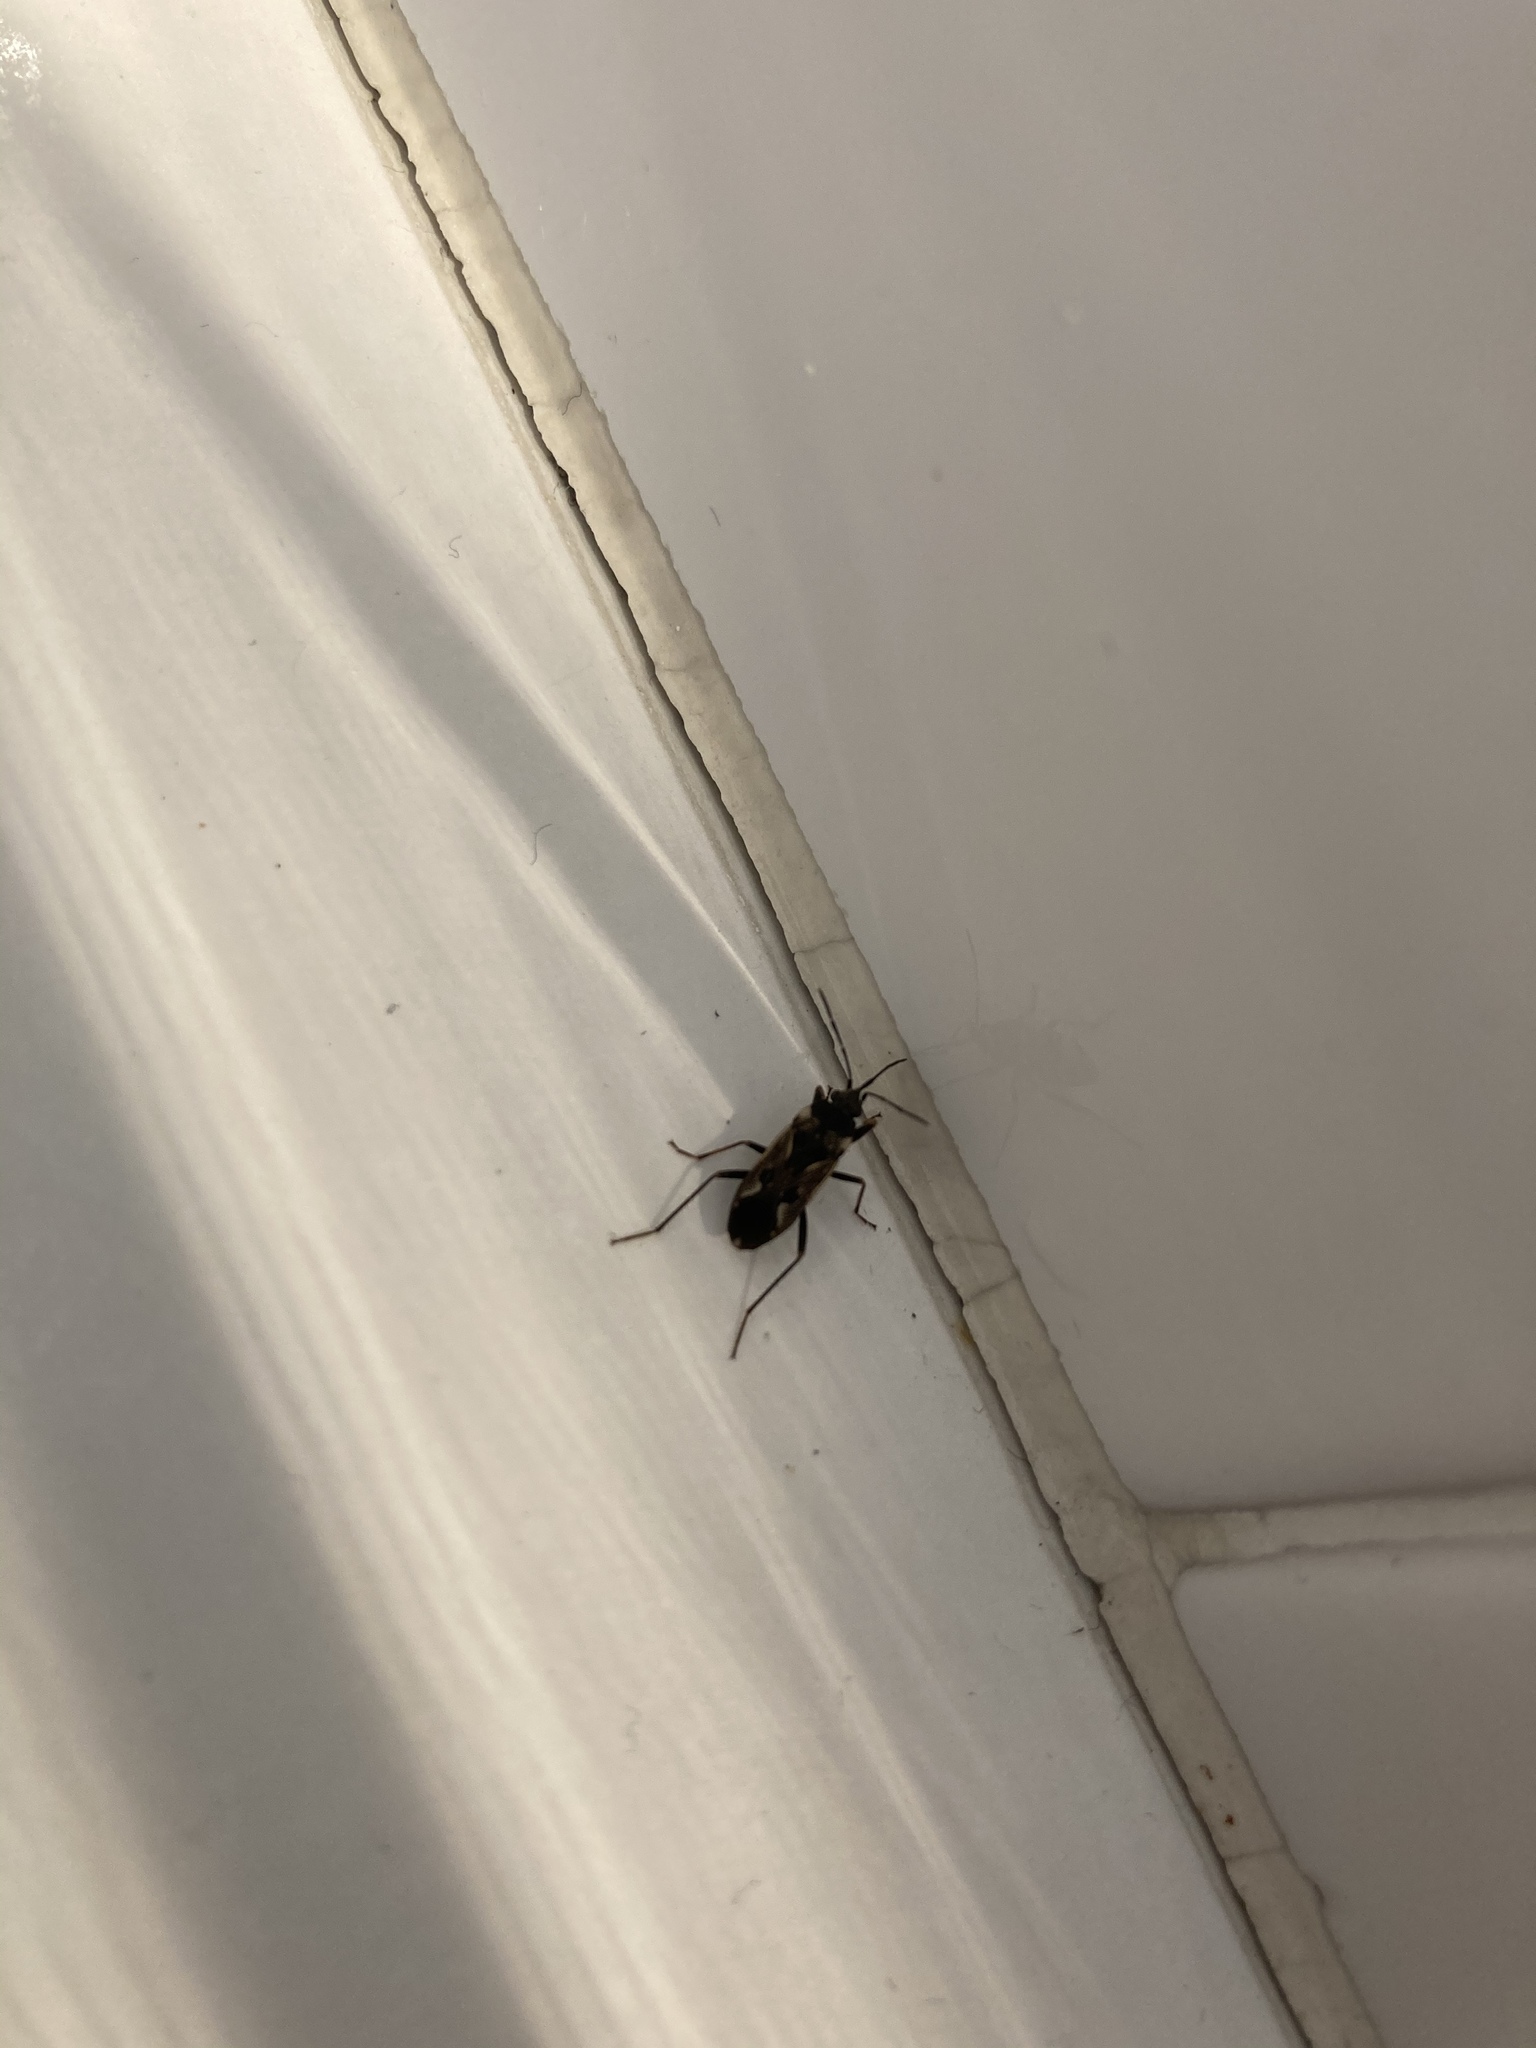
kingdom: Animalia
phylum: Arthropoda
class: Insecta
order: Hemiptera
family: Rhyparochromidae
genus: Rhyparochromus
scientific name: Rhyparochromus vulgaris
